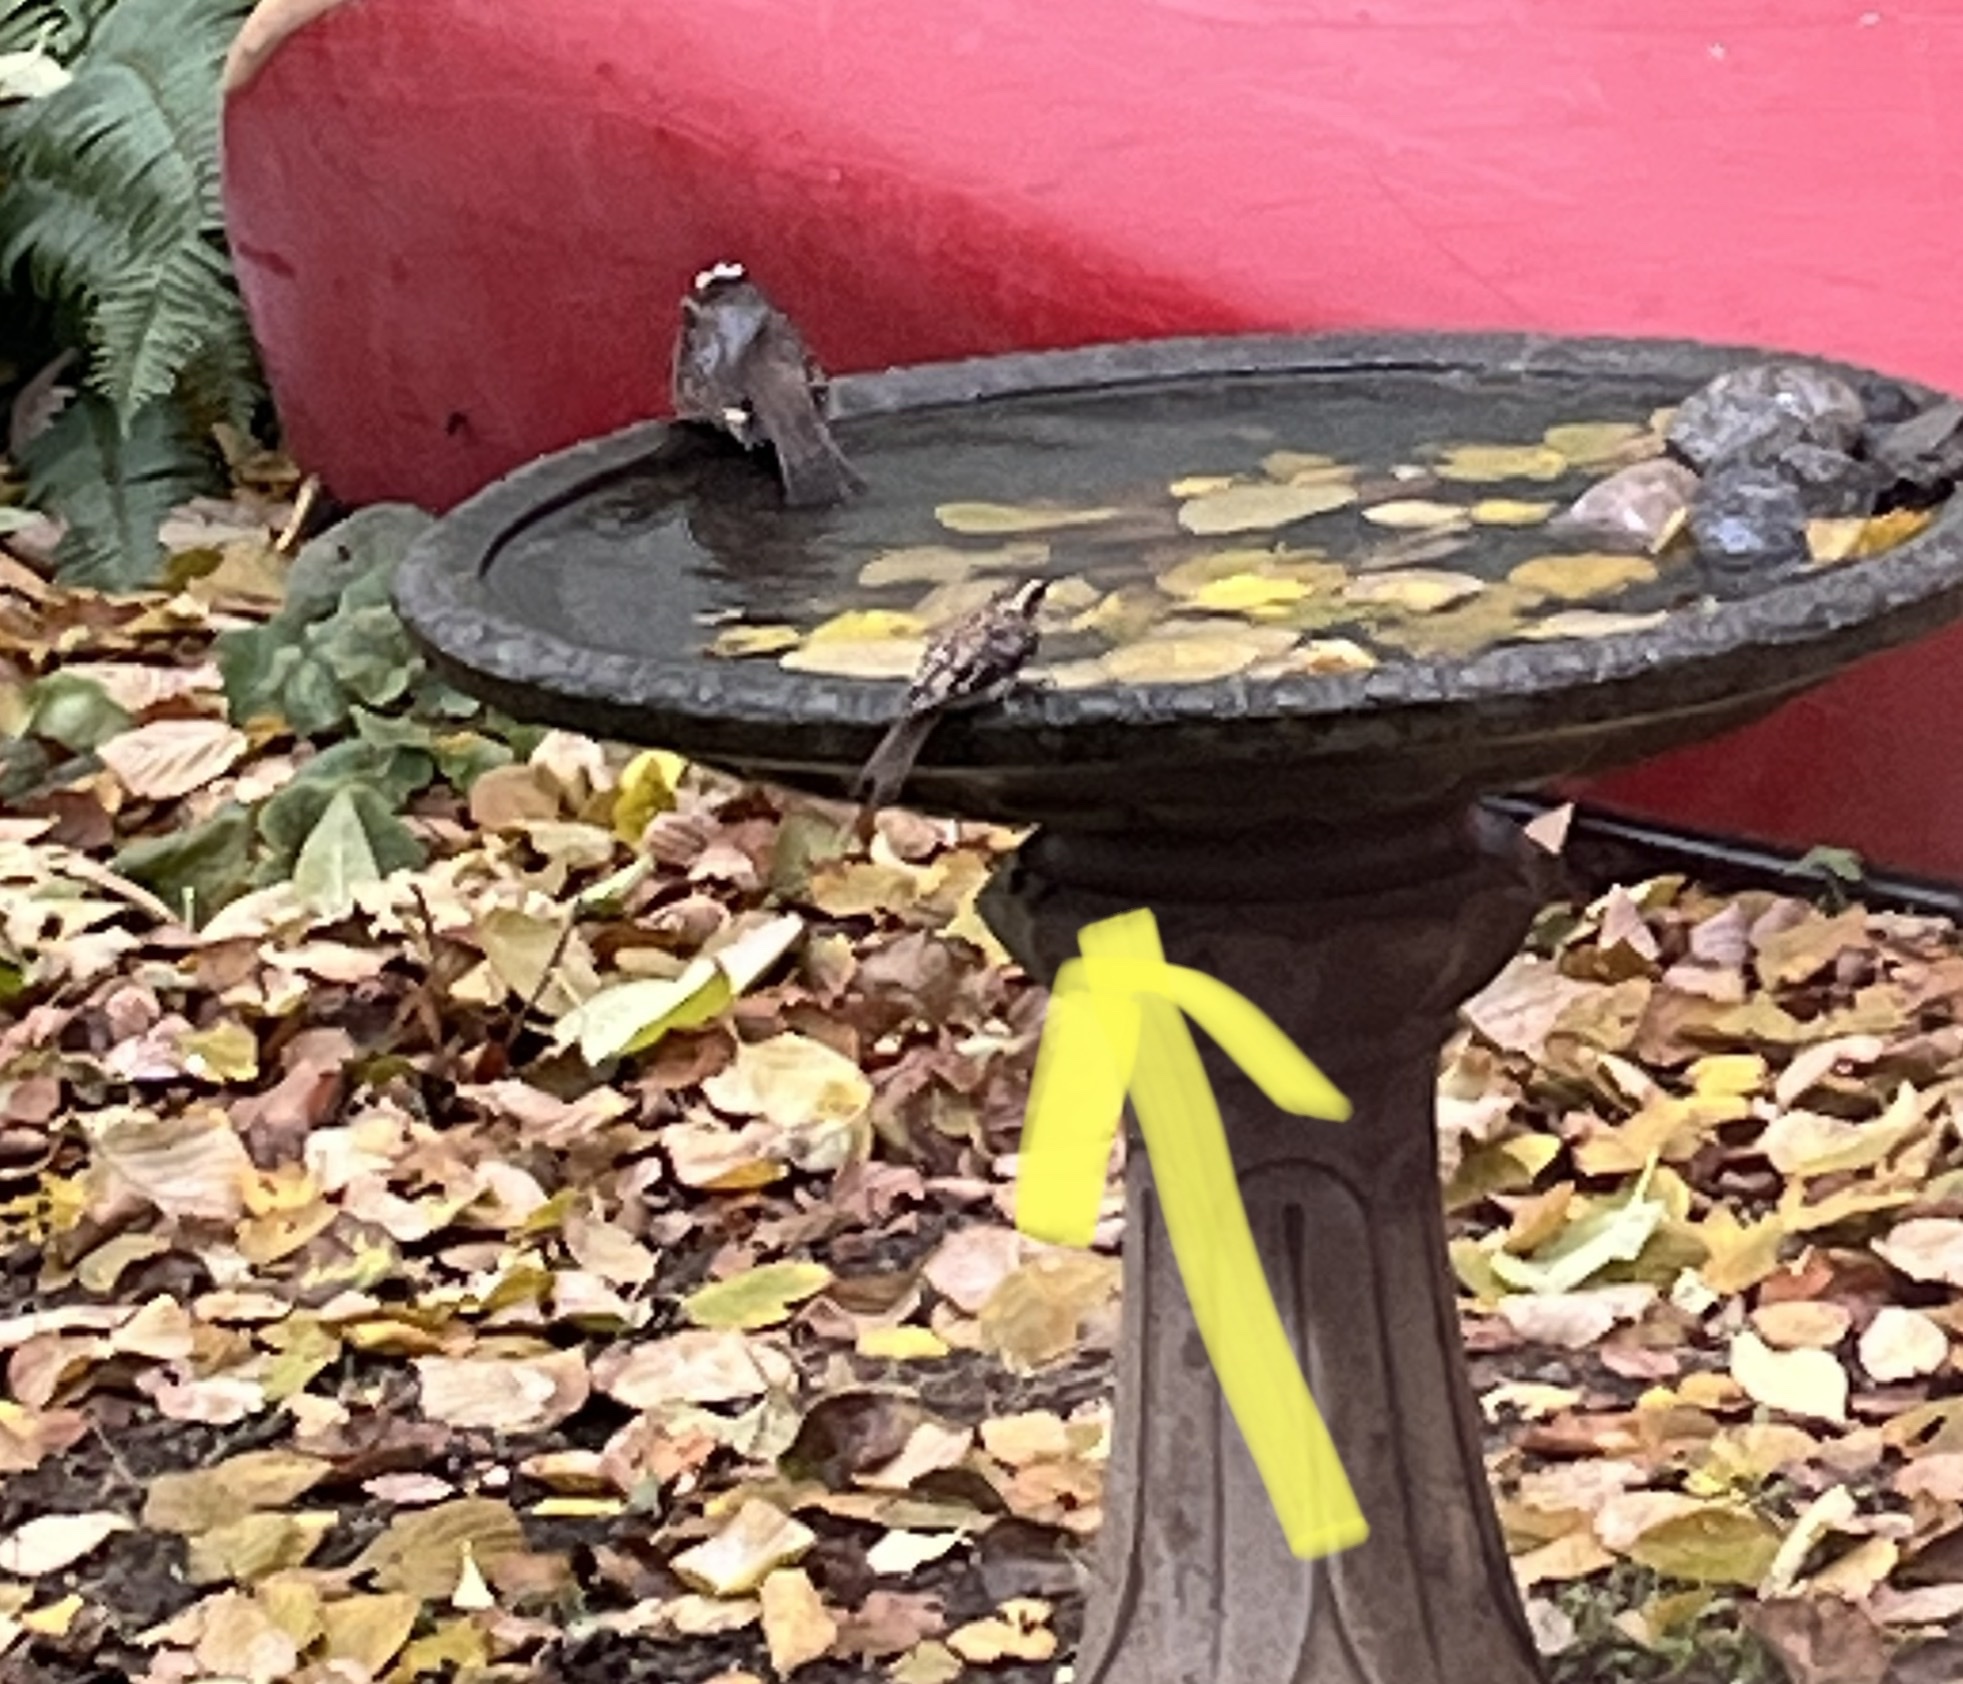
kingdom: Animalia
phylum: Chordata
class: Aves
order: Passeriformes
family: Certhiidae
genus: Certhia
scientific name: Certhia americana
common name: Brown creeper
